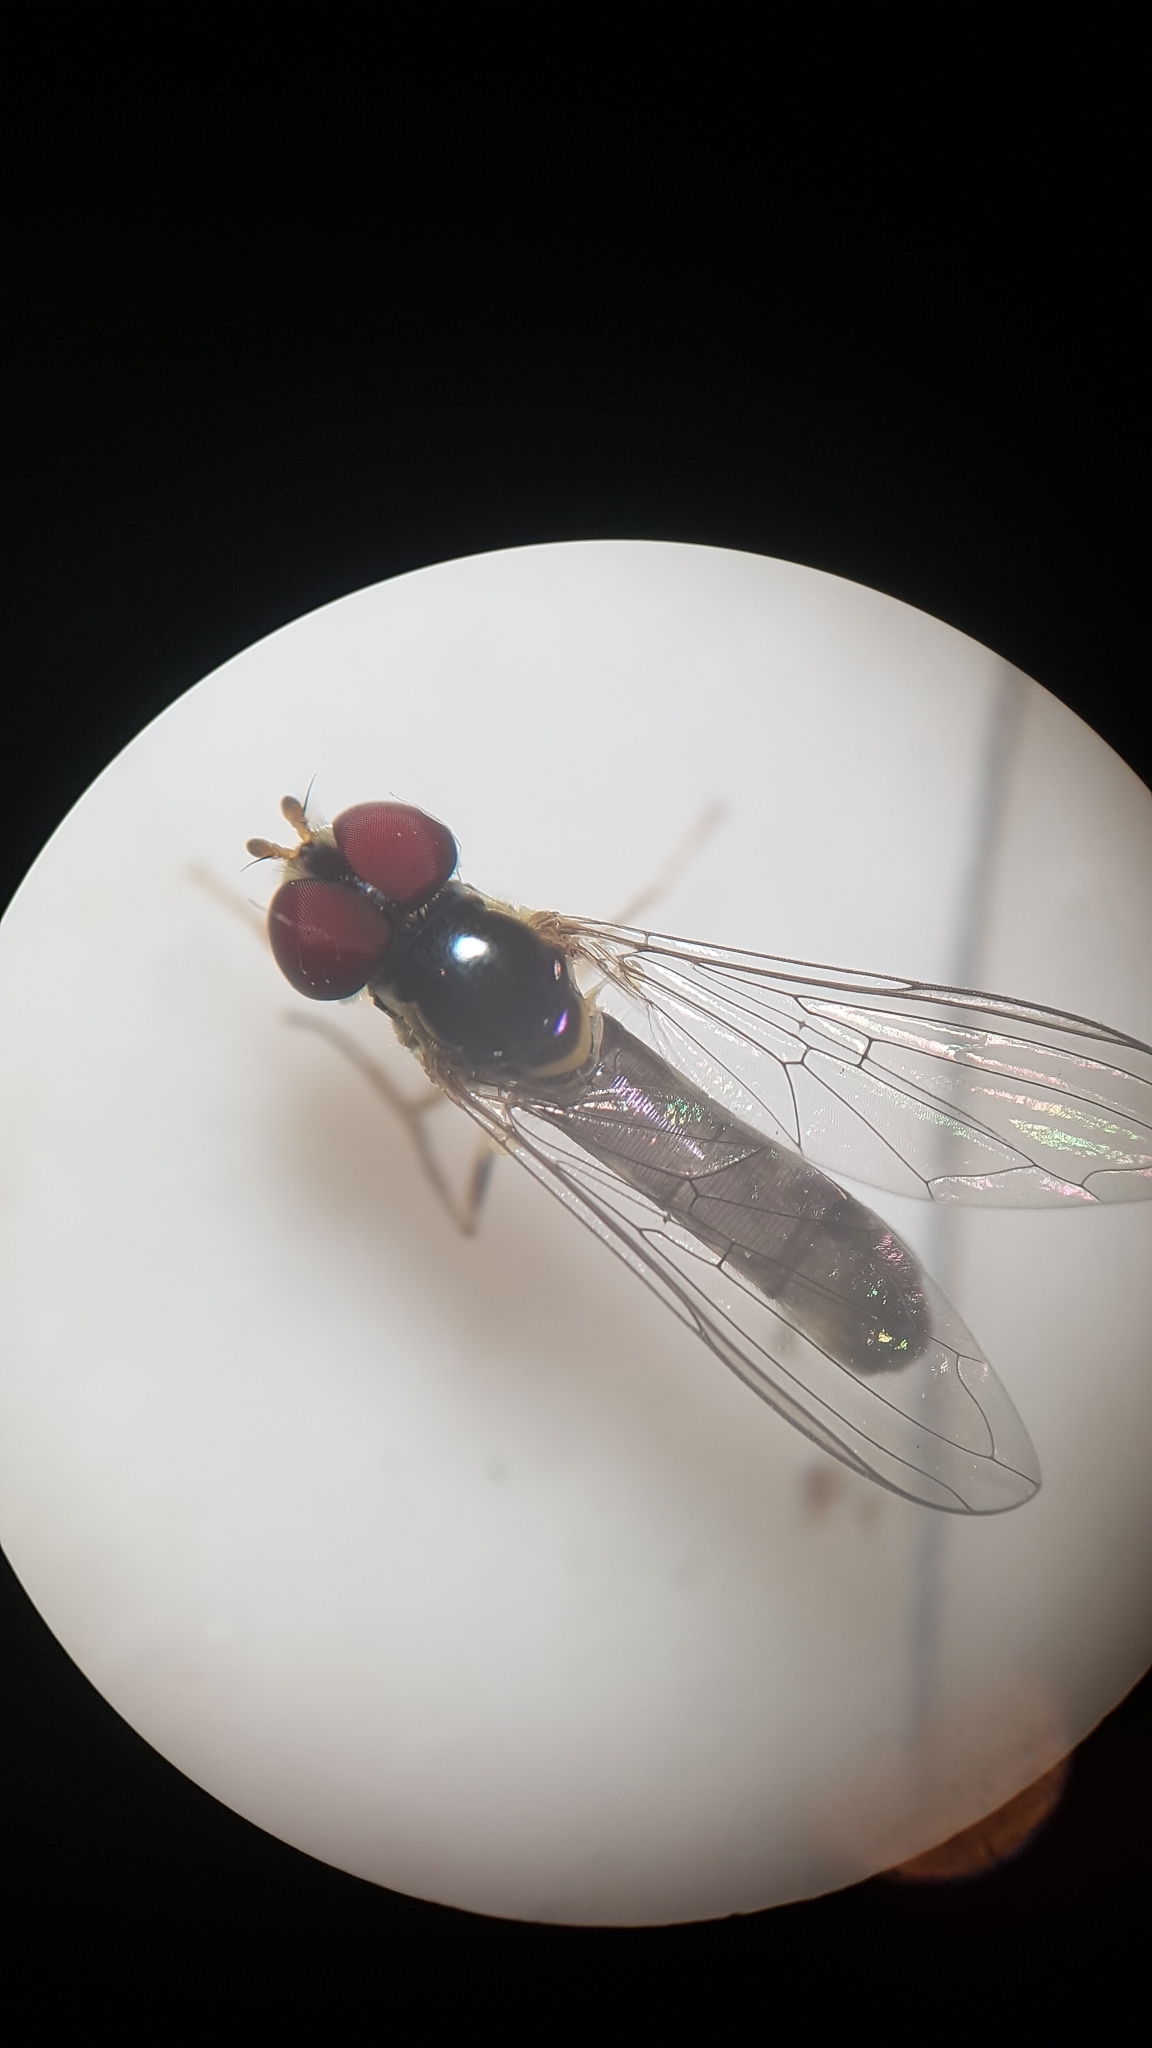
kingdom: Animalia
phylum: Arthropoda
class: Insecta
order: Diptera
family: Syrphidae
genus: Allograpta
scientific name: Allograpta hollowayae
